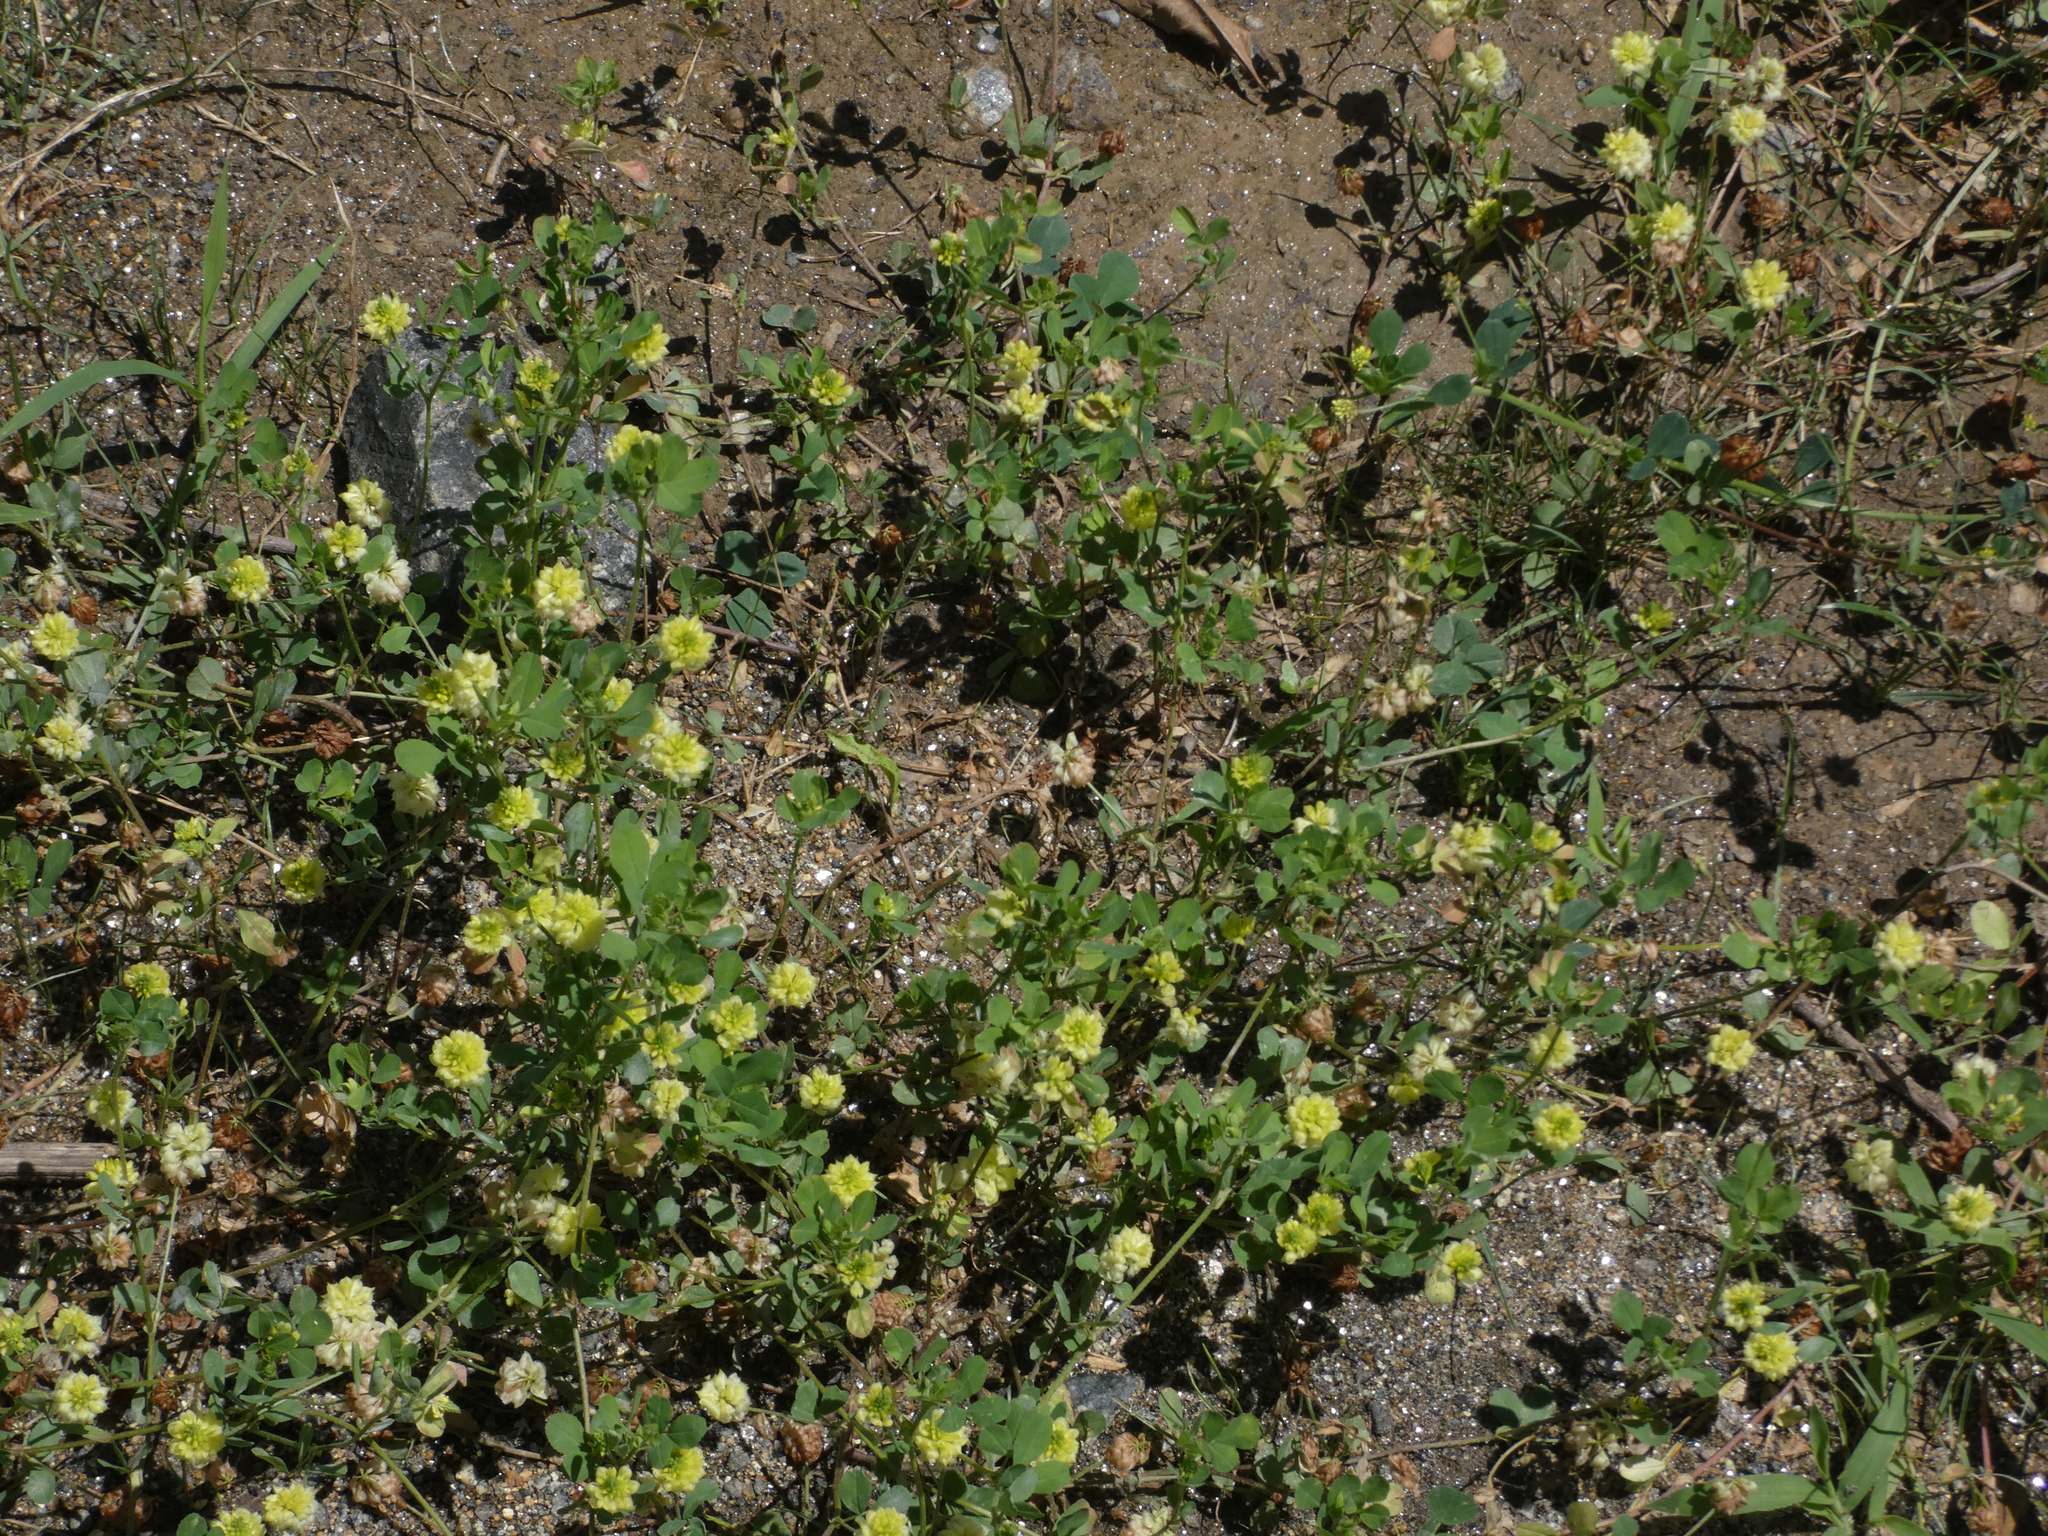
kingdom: Plantae
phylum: Tracheophyta
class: Magnoliopsida
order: Fabales
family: Fabaceae
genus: Trifolium
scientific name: Trifolium campestre
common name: Field clover
